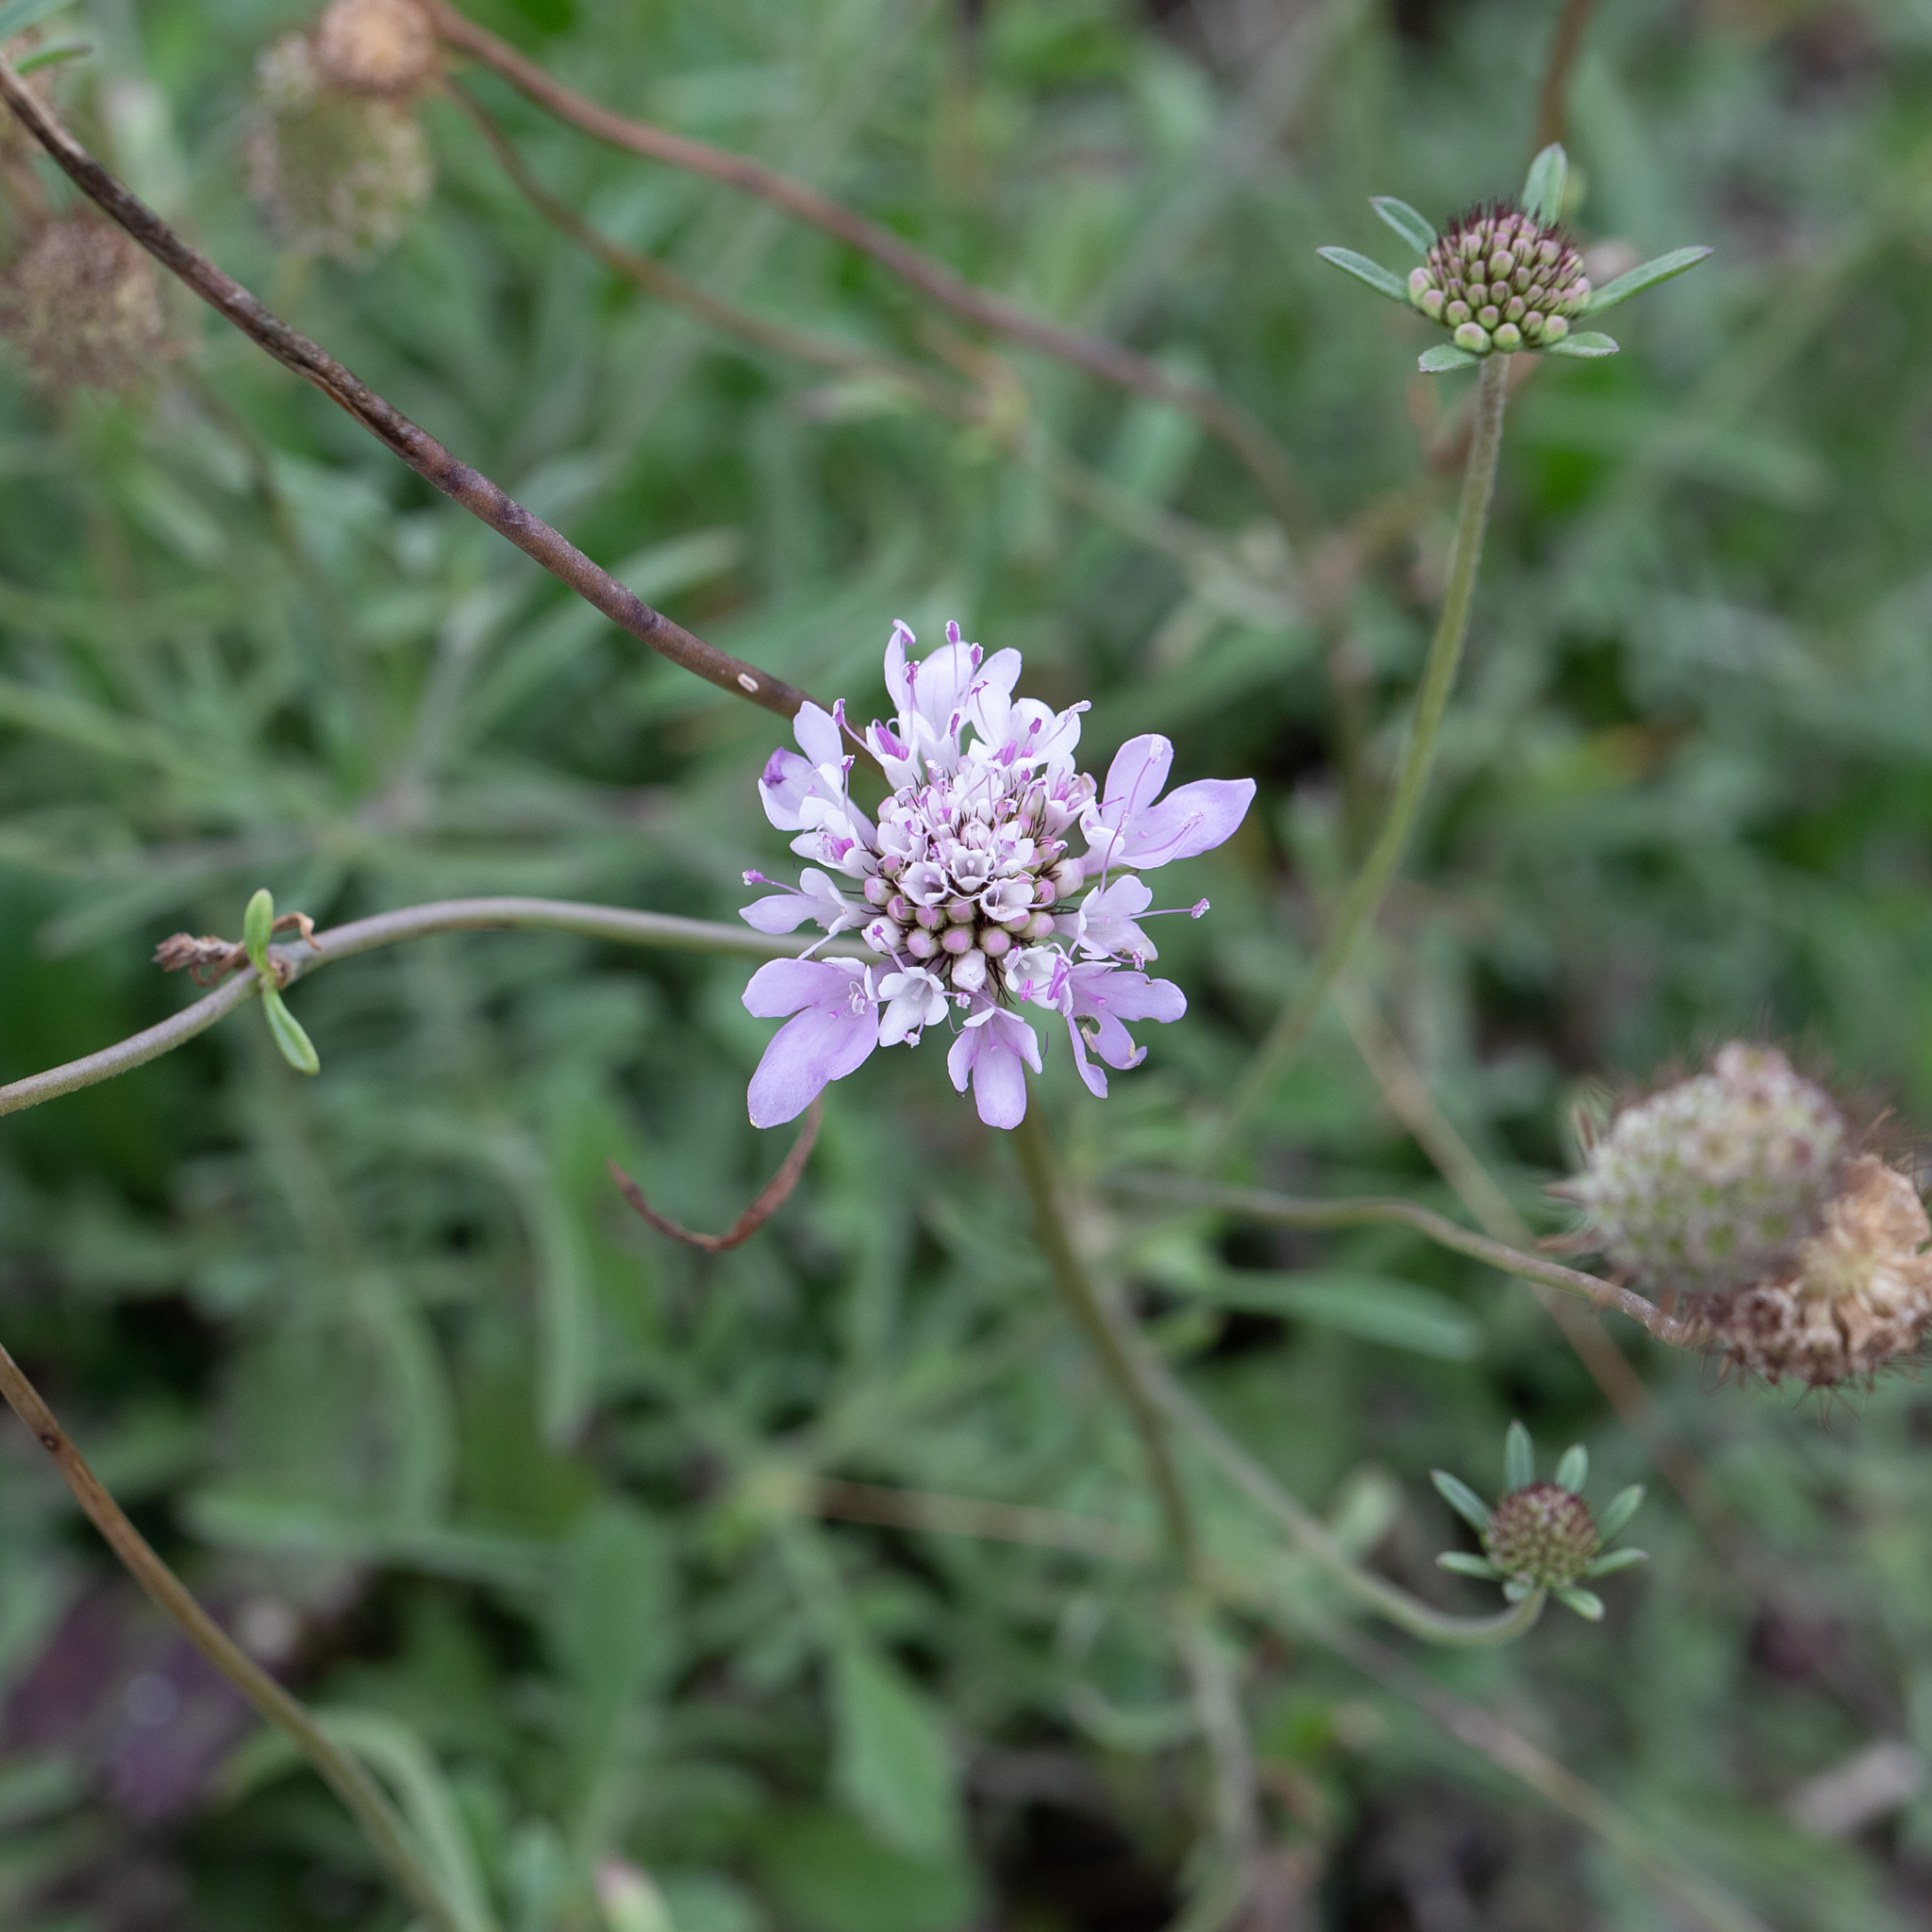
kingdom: Plantae
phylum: Tracheophyta
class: Magnoliopsida
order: Dipsacales
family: Caprifoliaceae
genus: Sixalix
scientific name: Sixalix atropurpurea
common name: Sweet scabious
